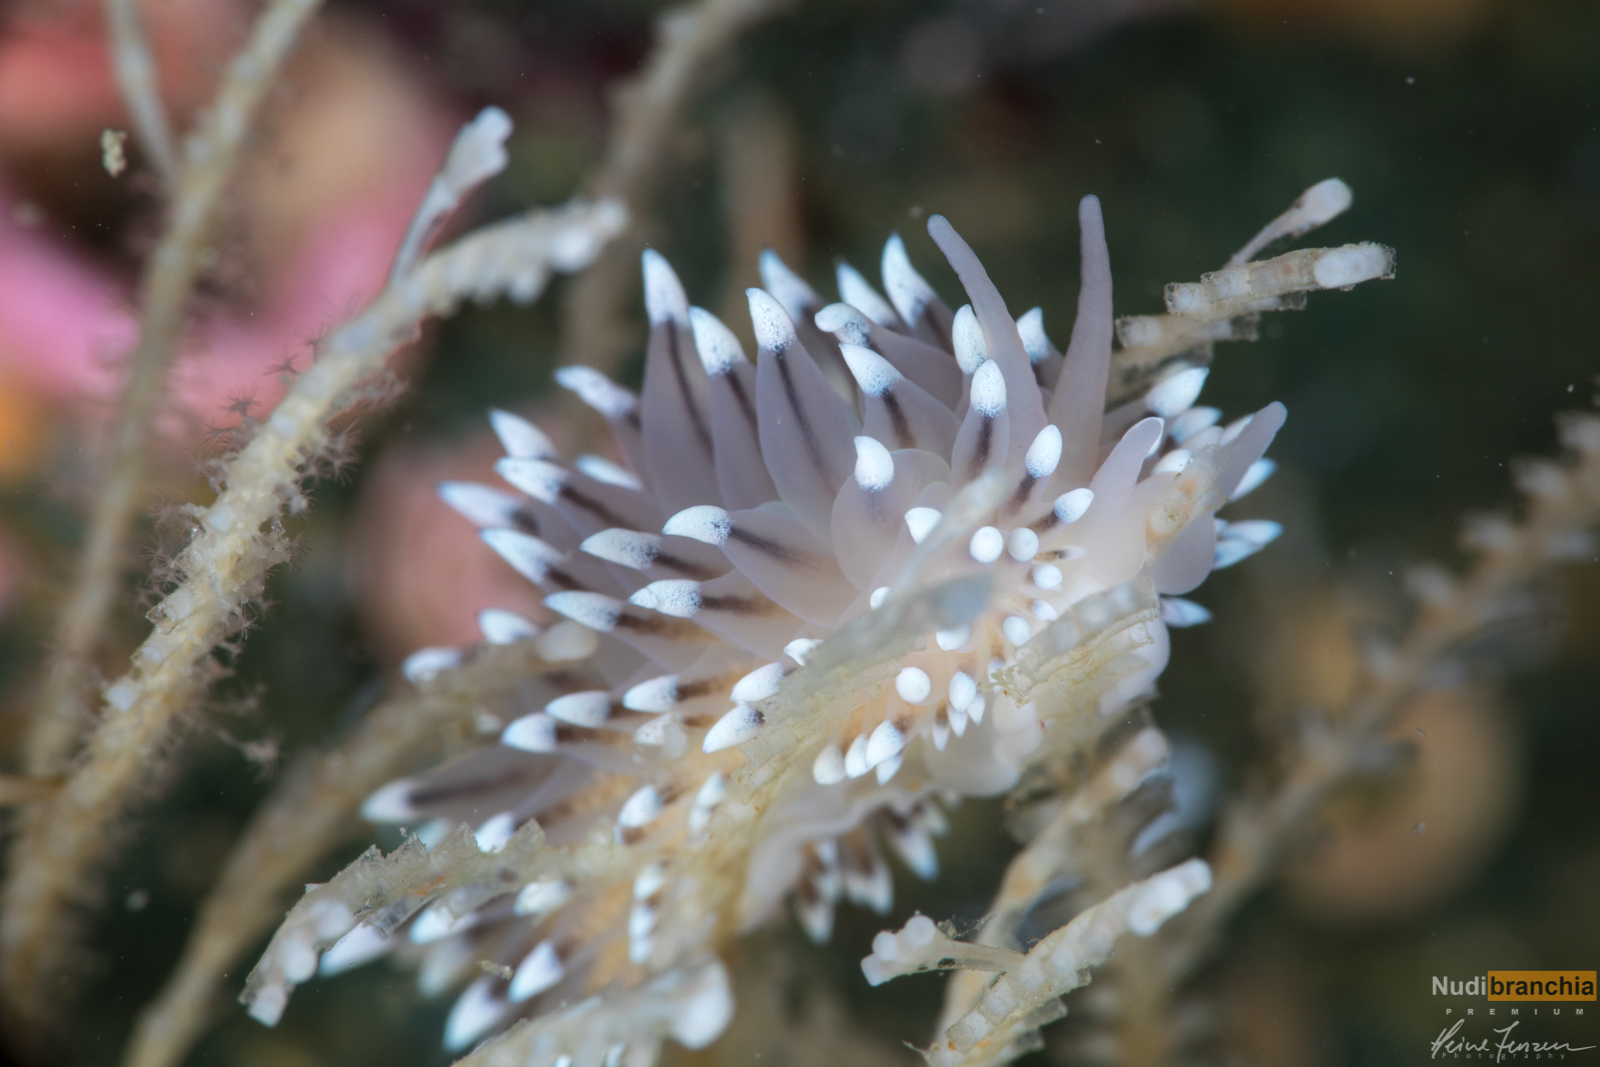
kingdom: Animalia
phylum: Mollusca
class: Gastropoda
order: Nudibranchia
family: Eubranchidae
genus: Eubranchus
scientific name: Eubranchus tricolor
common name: Painted balloon aeolis
